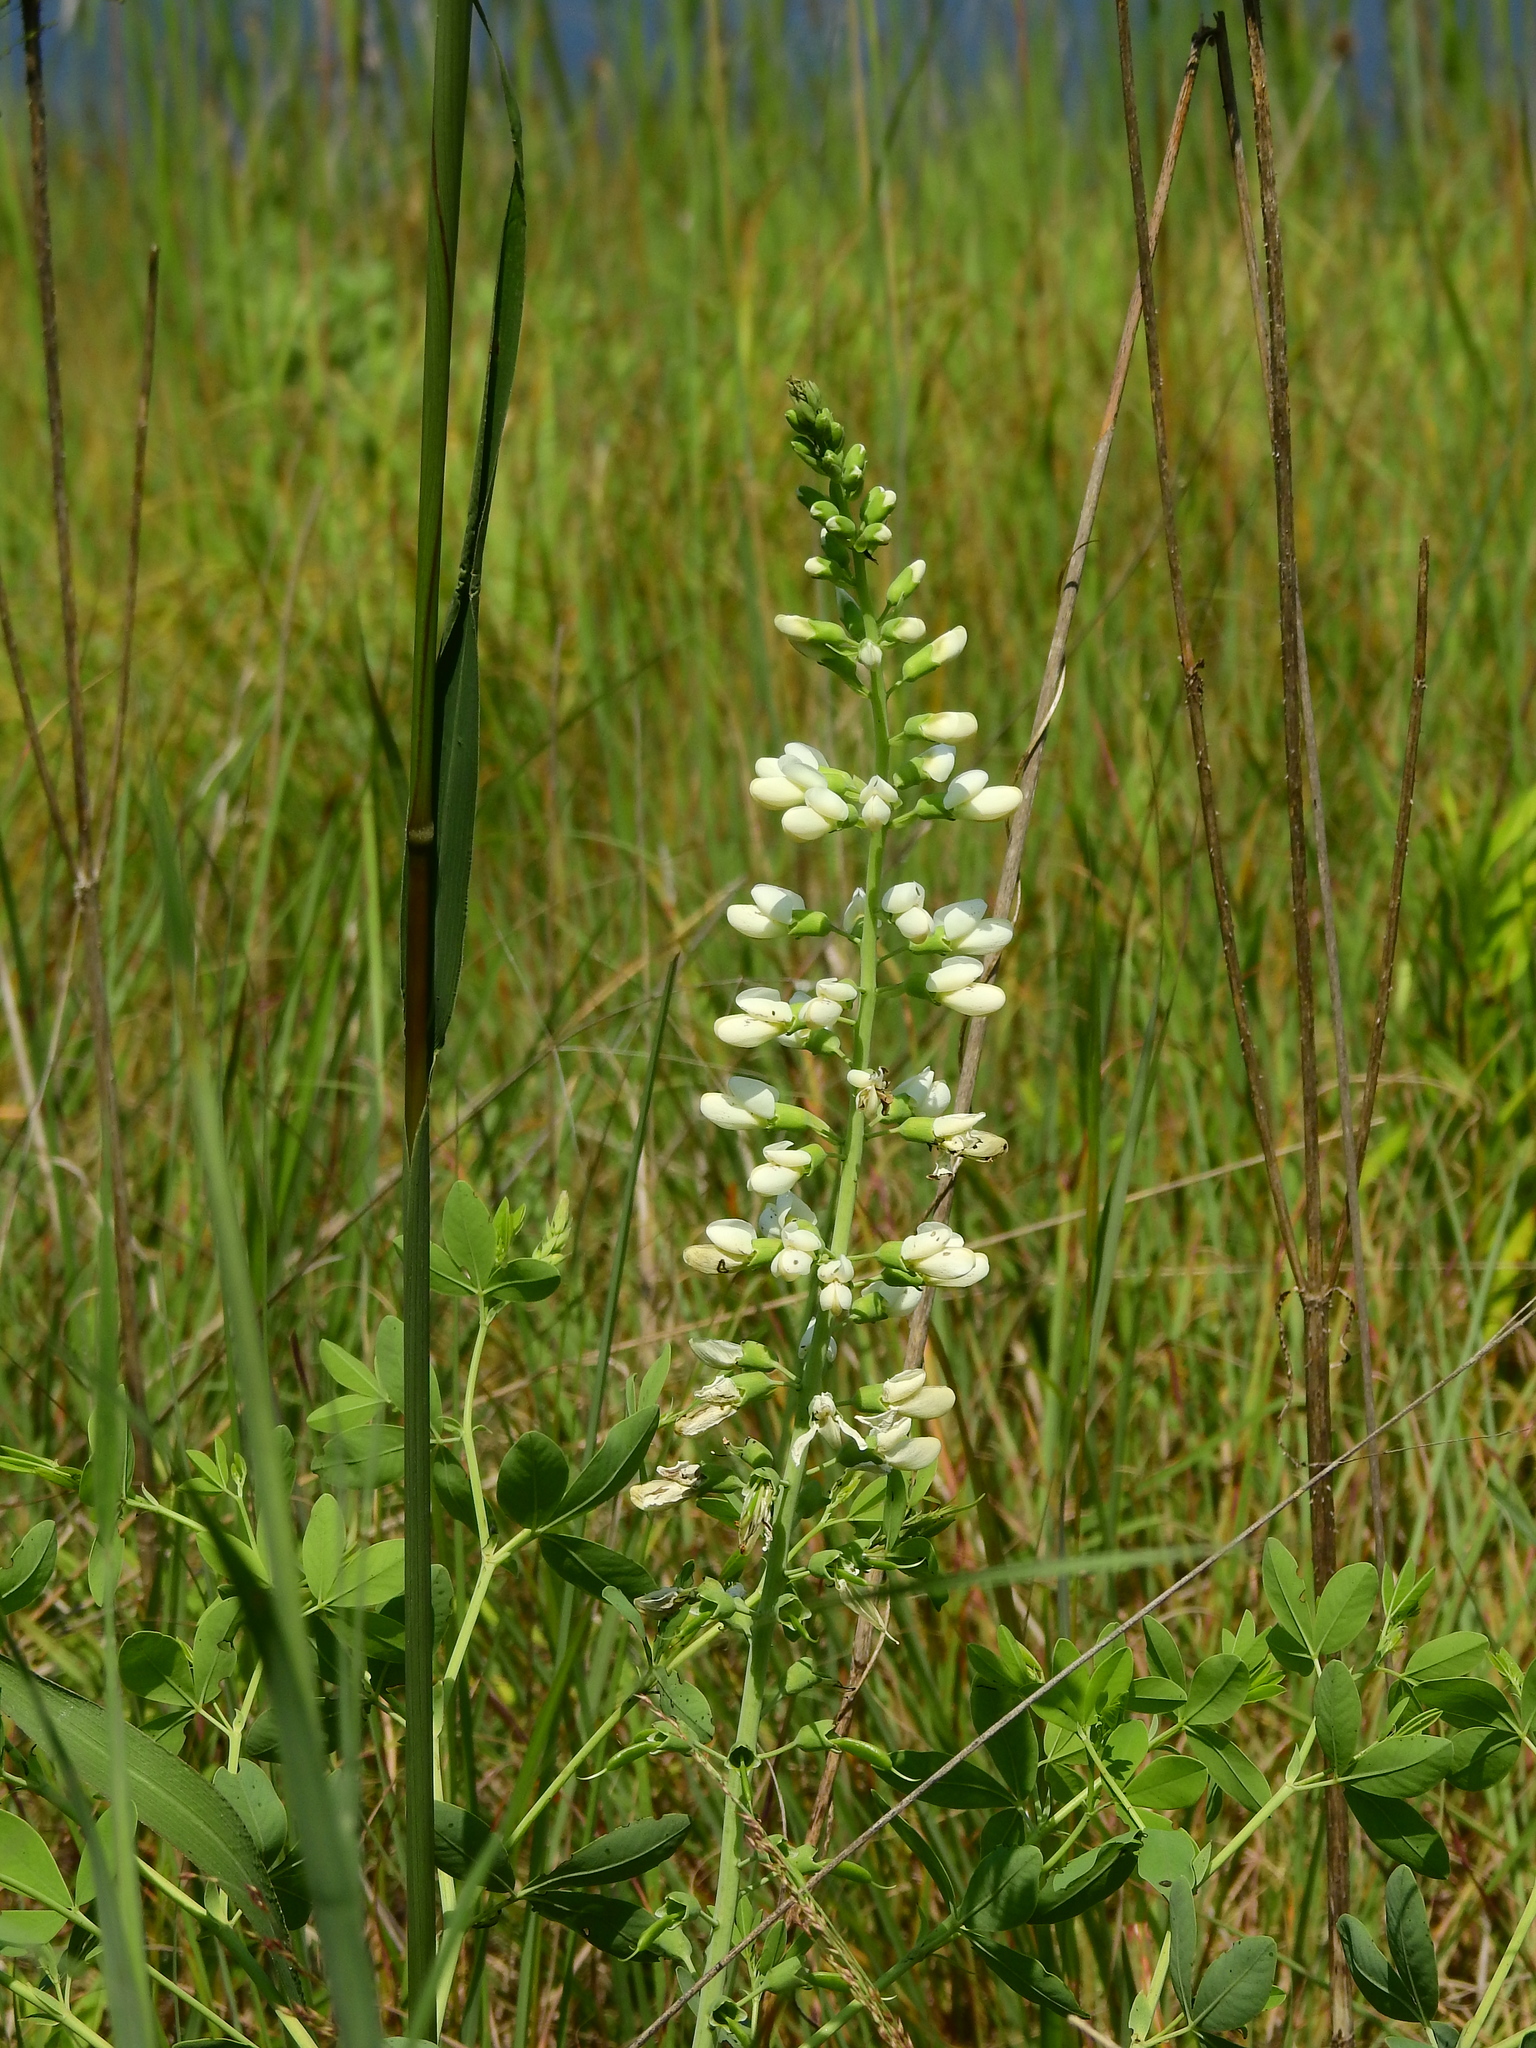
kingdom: Plantae
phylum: Tracheophyta
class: Magnoliopsida
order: Fabales
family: Fabaceae
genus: Baptisia
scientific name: Baptisia alba
